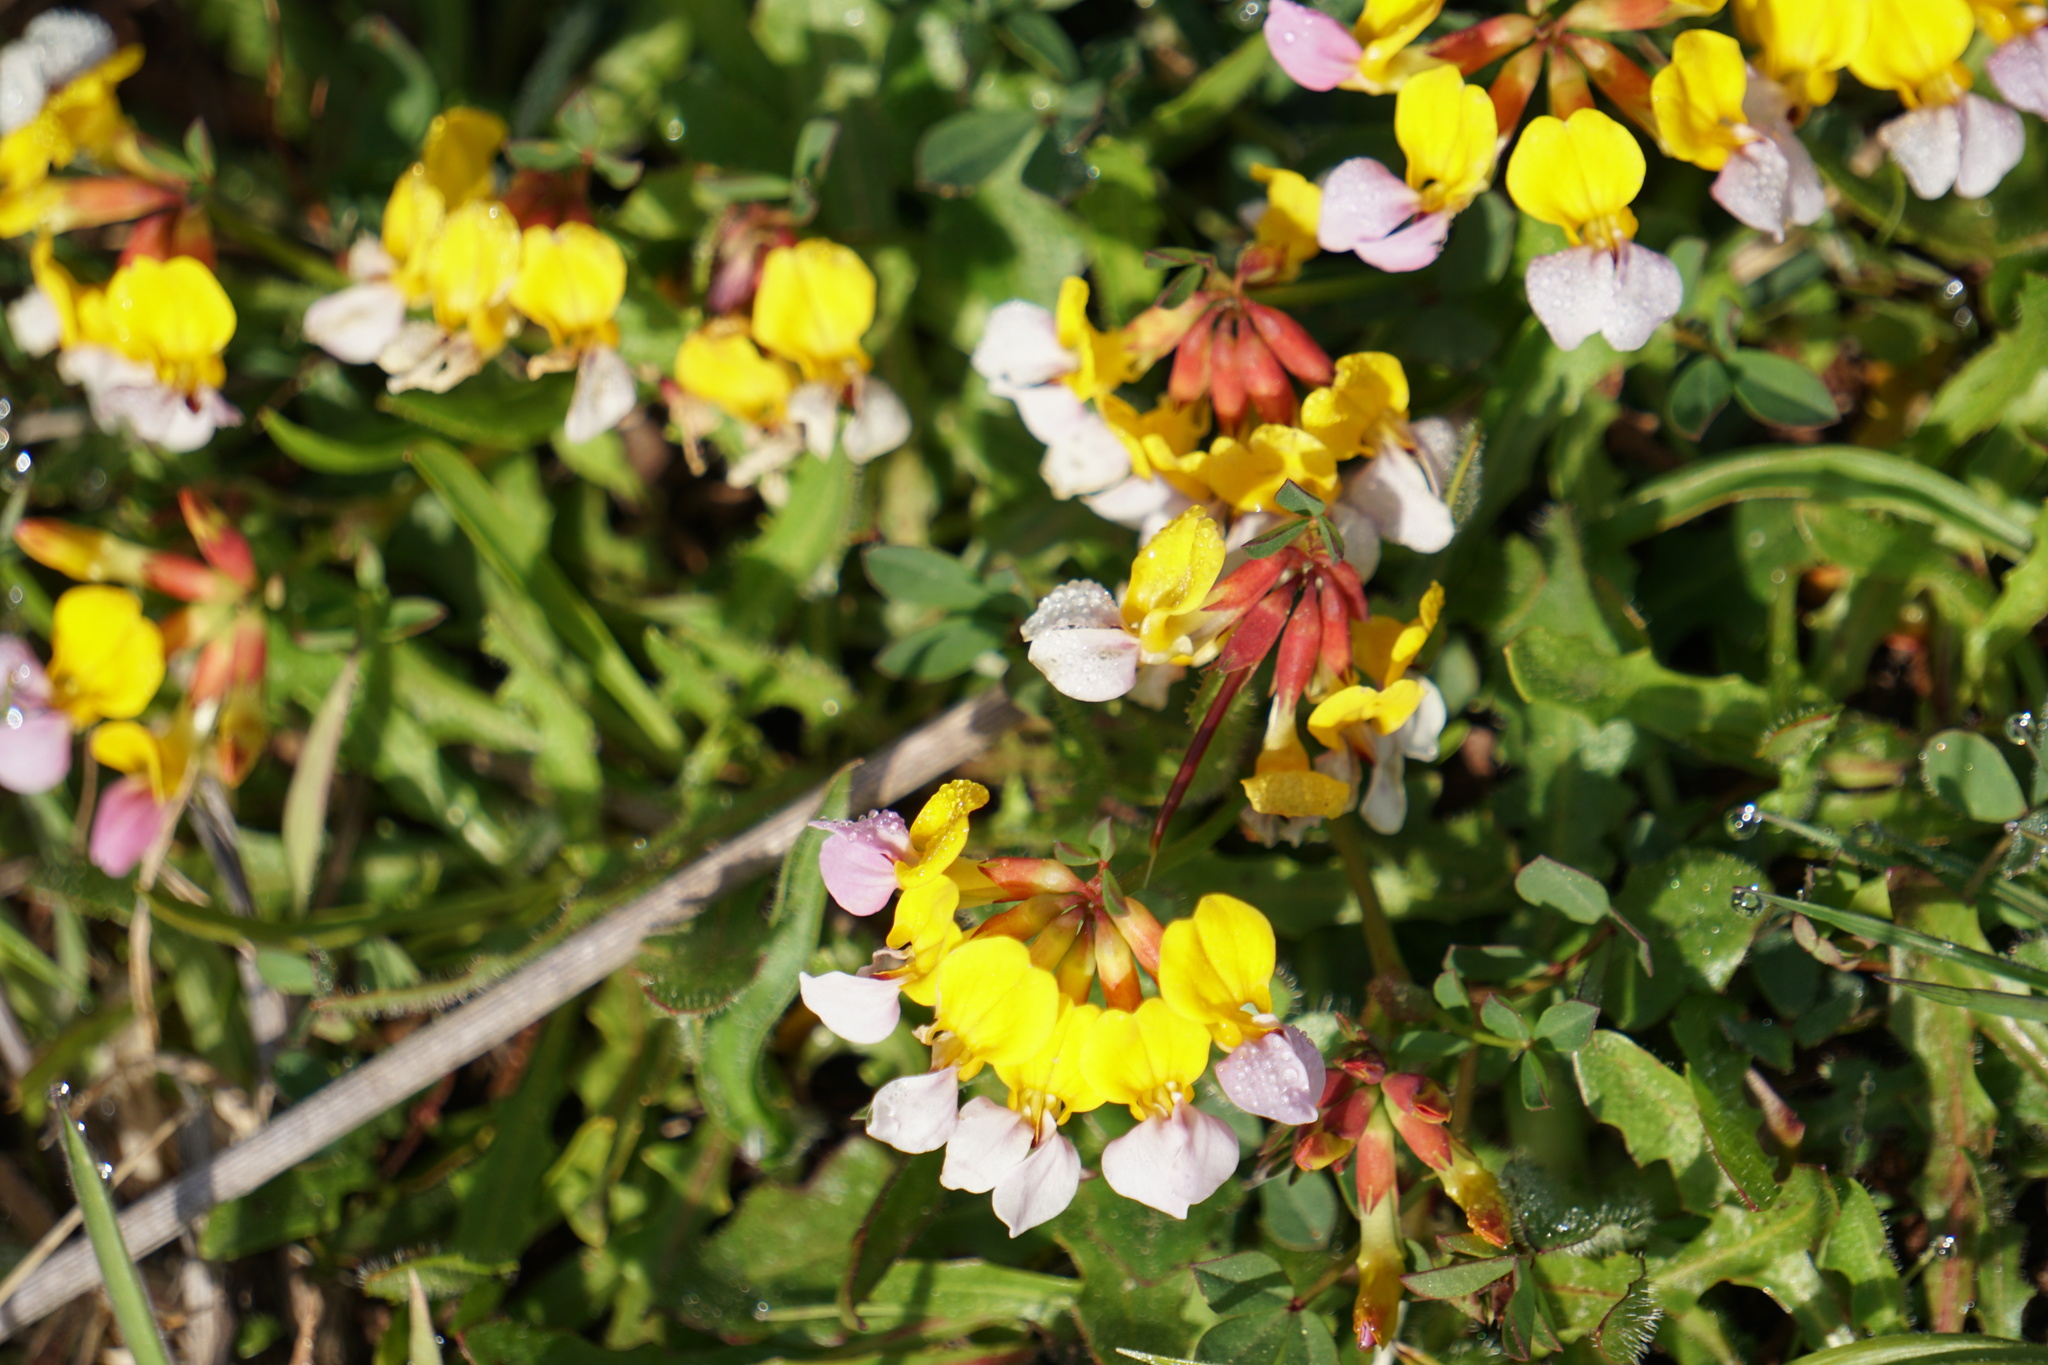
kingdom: Plantae
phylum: Tracheophyta
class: Magnoliopsida
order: Fabales
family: Fabaceae
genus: Hosackia
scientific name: Hosackia gracilis
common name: Seaside bird's-foot lotus
